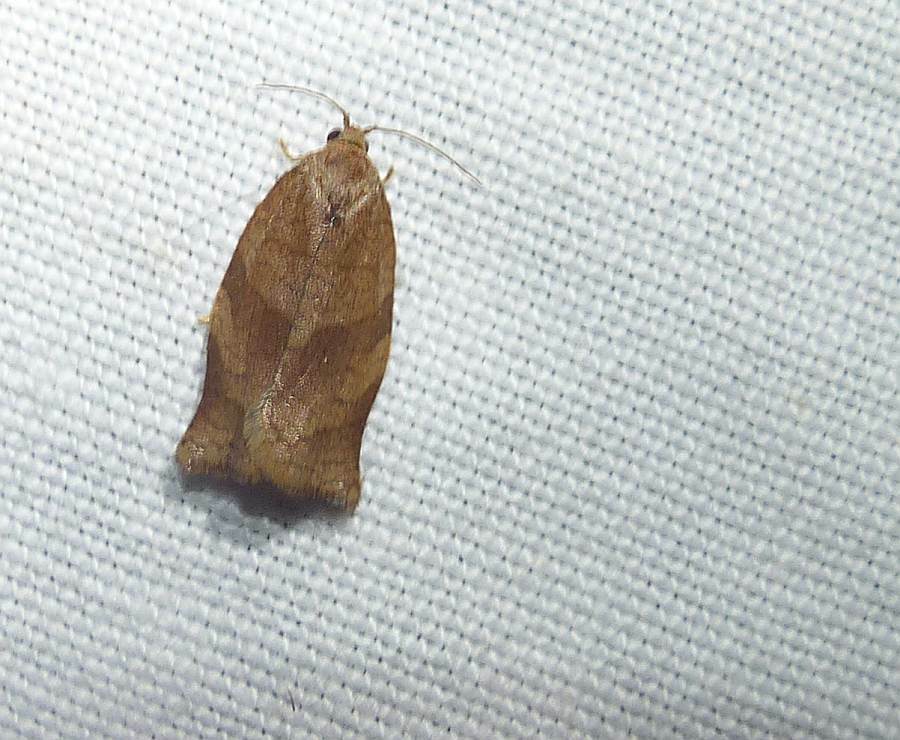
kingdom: Animalia
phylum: Arthropoda
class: Insecta
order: Lepidoptera
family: Tortricidae
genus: Choristoneura
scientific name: Choristoneura rosaceana
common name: Oblique-banded leafroller moth
